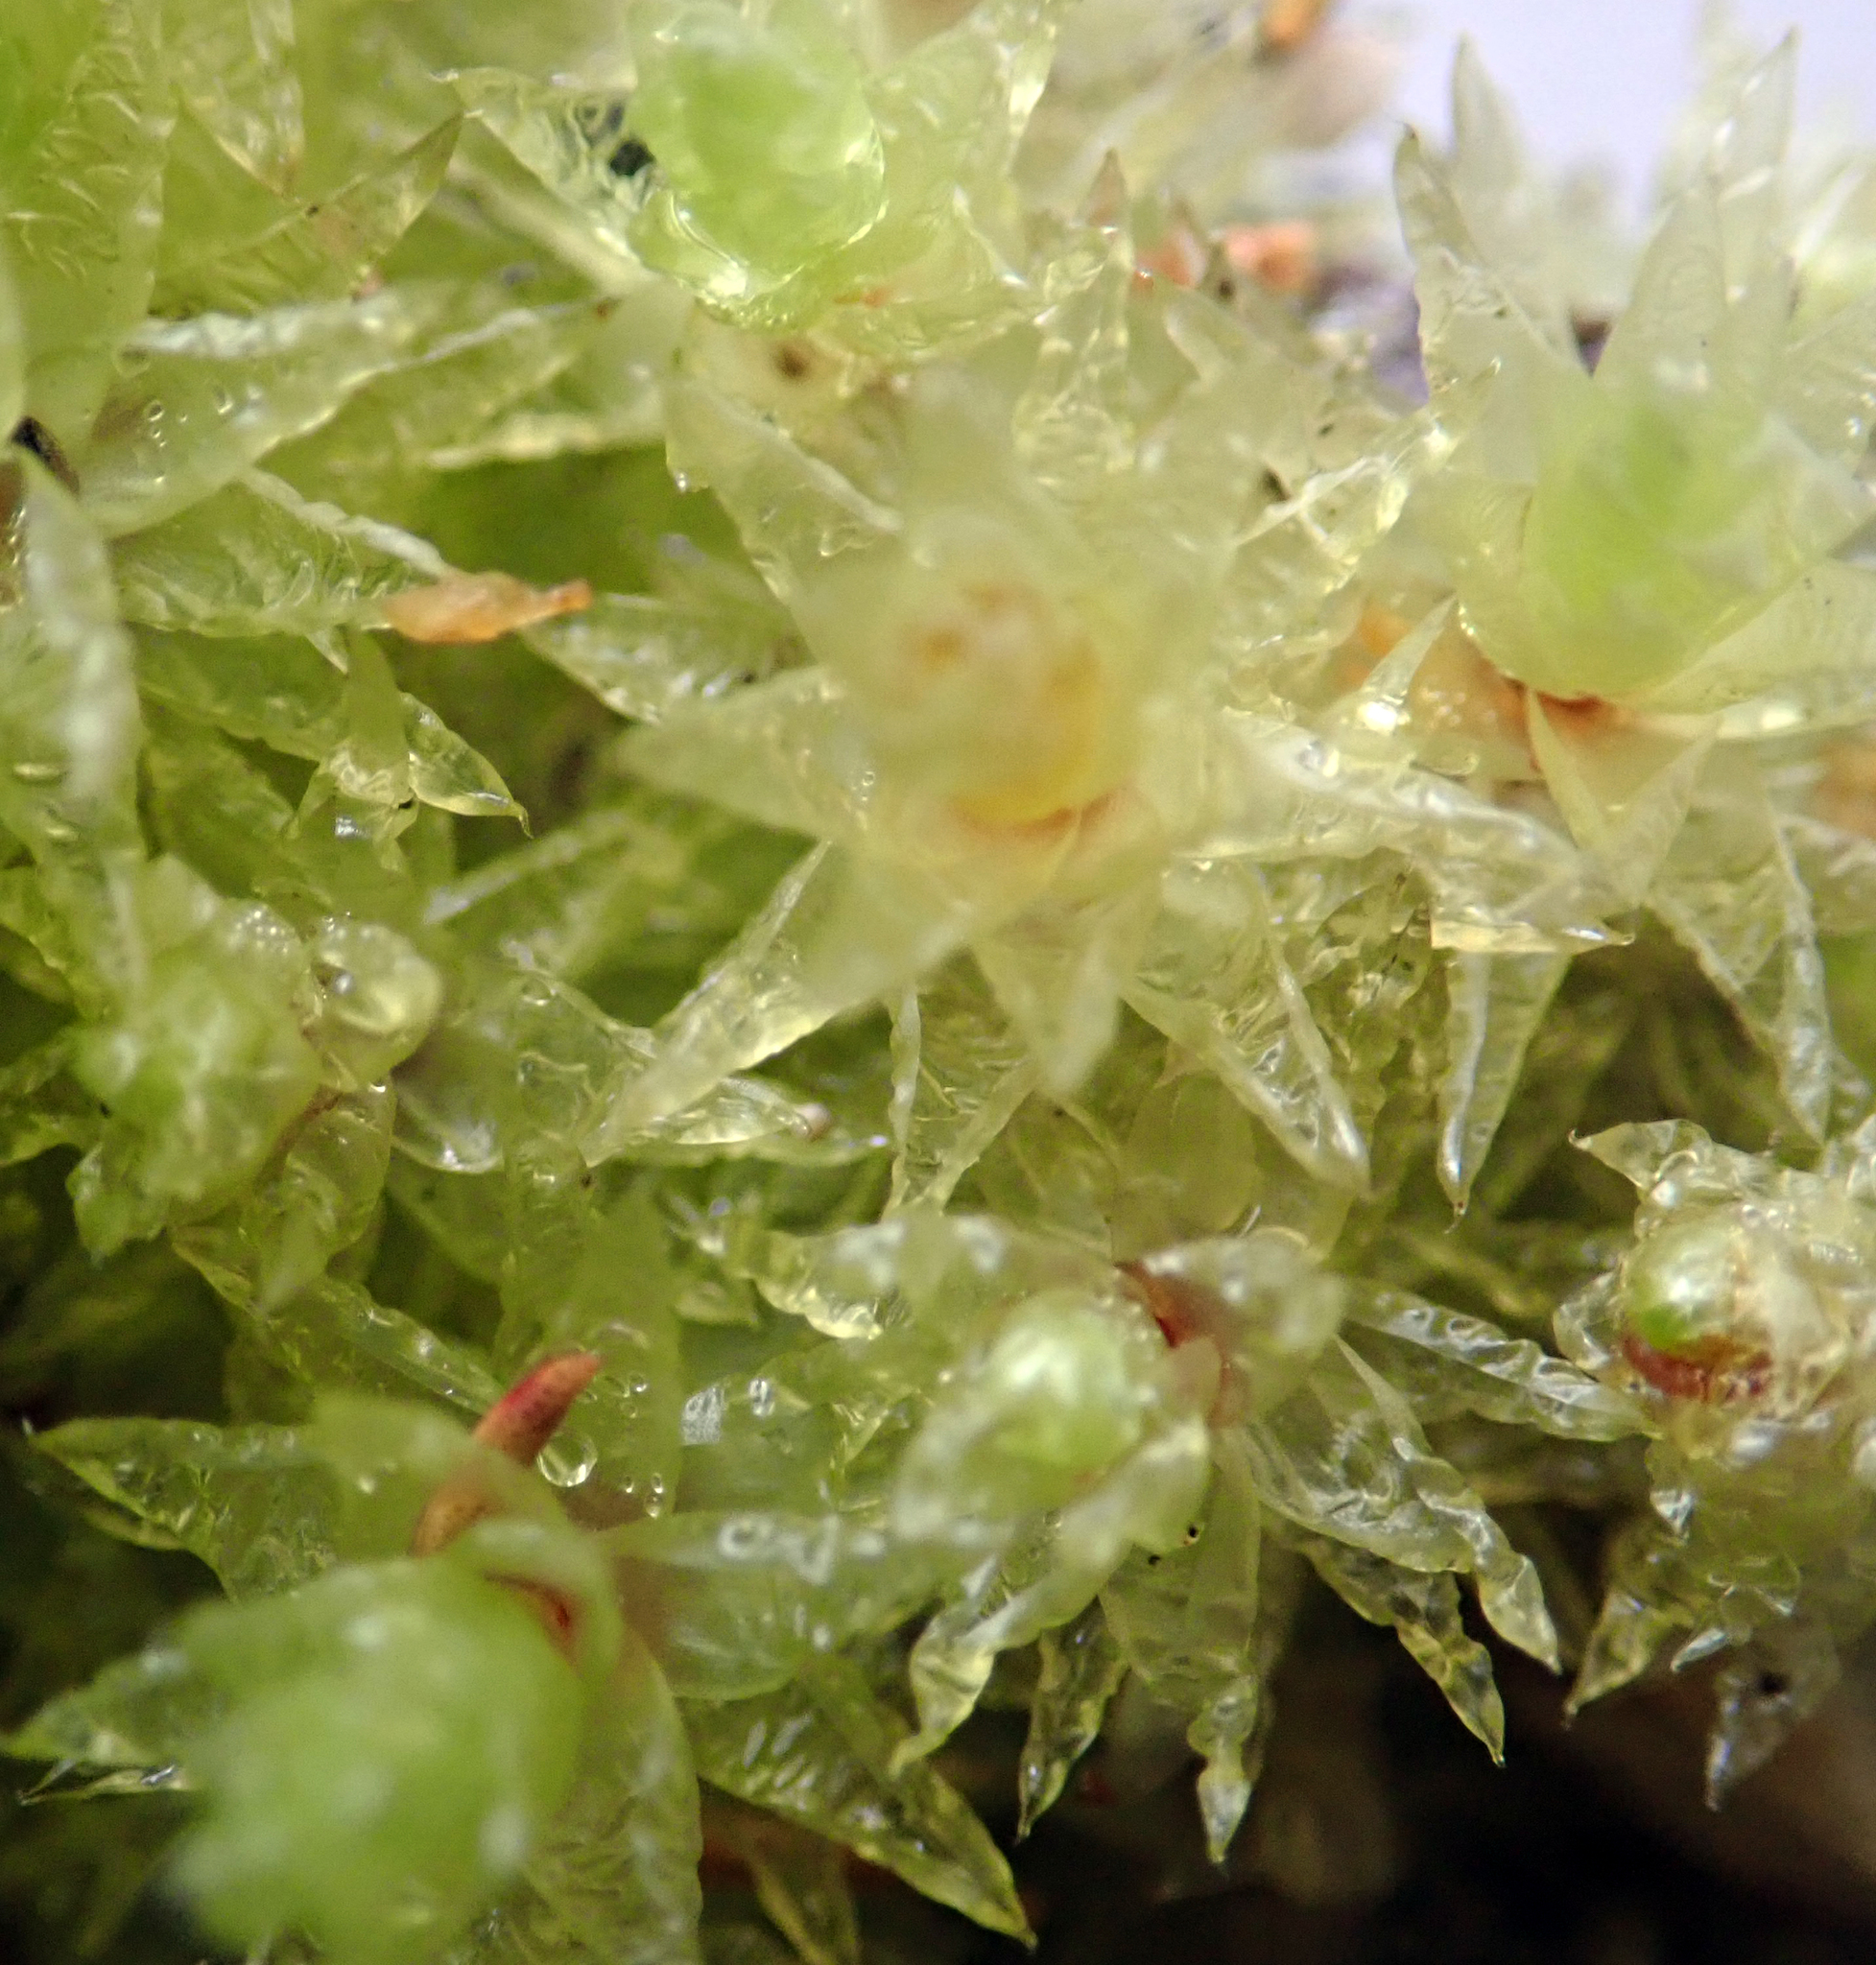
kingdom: Plantae
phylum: Bryophyta
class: Bryopsida
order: Bryales
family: Pulchrinodaceae
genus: Pulchrinodus
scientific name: Pulchrinodus inflatus
